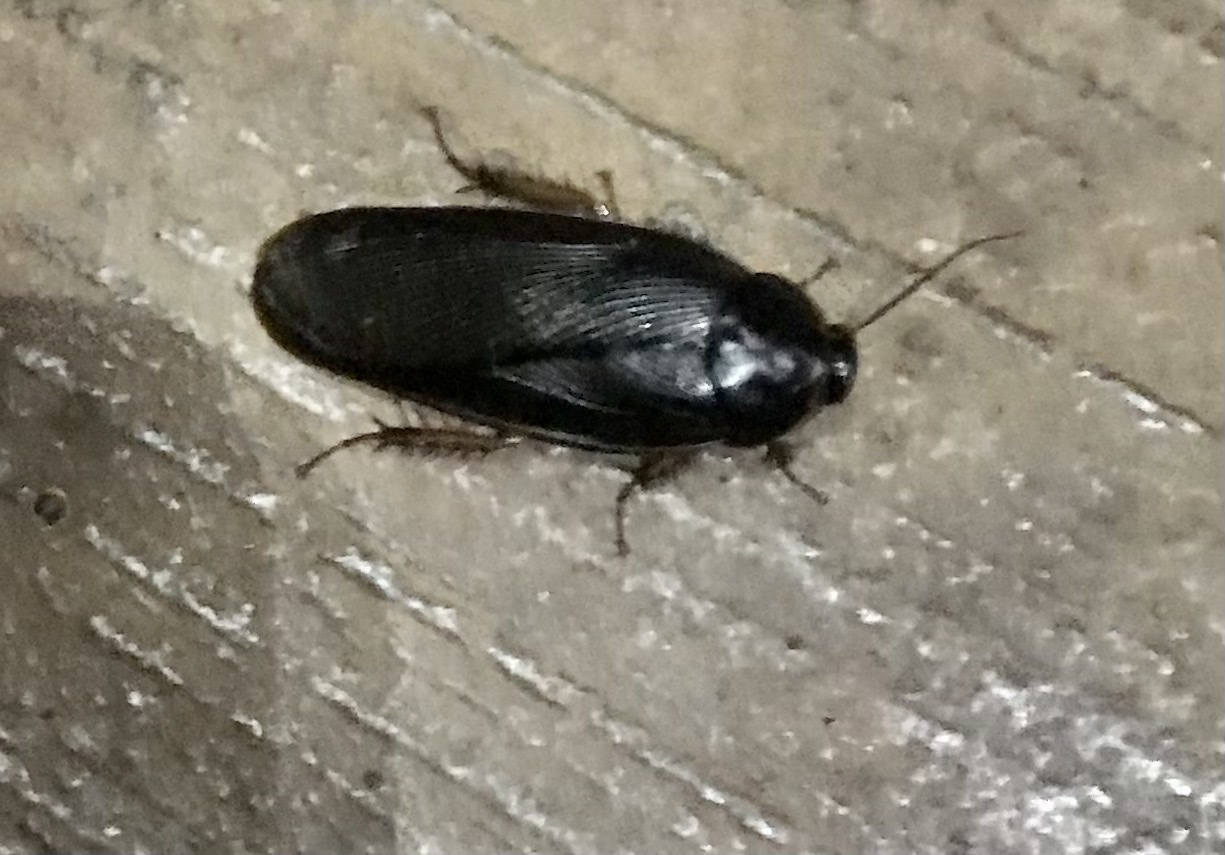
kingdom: Animalia
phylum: Arthropoda
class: Insecta
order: Blattodea
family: Blaberidae
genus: Pycnoscelus
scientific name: Pycnoscelus nigra
